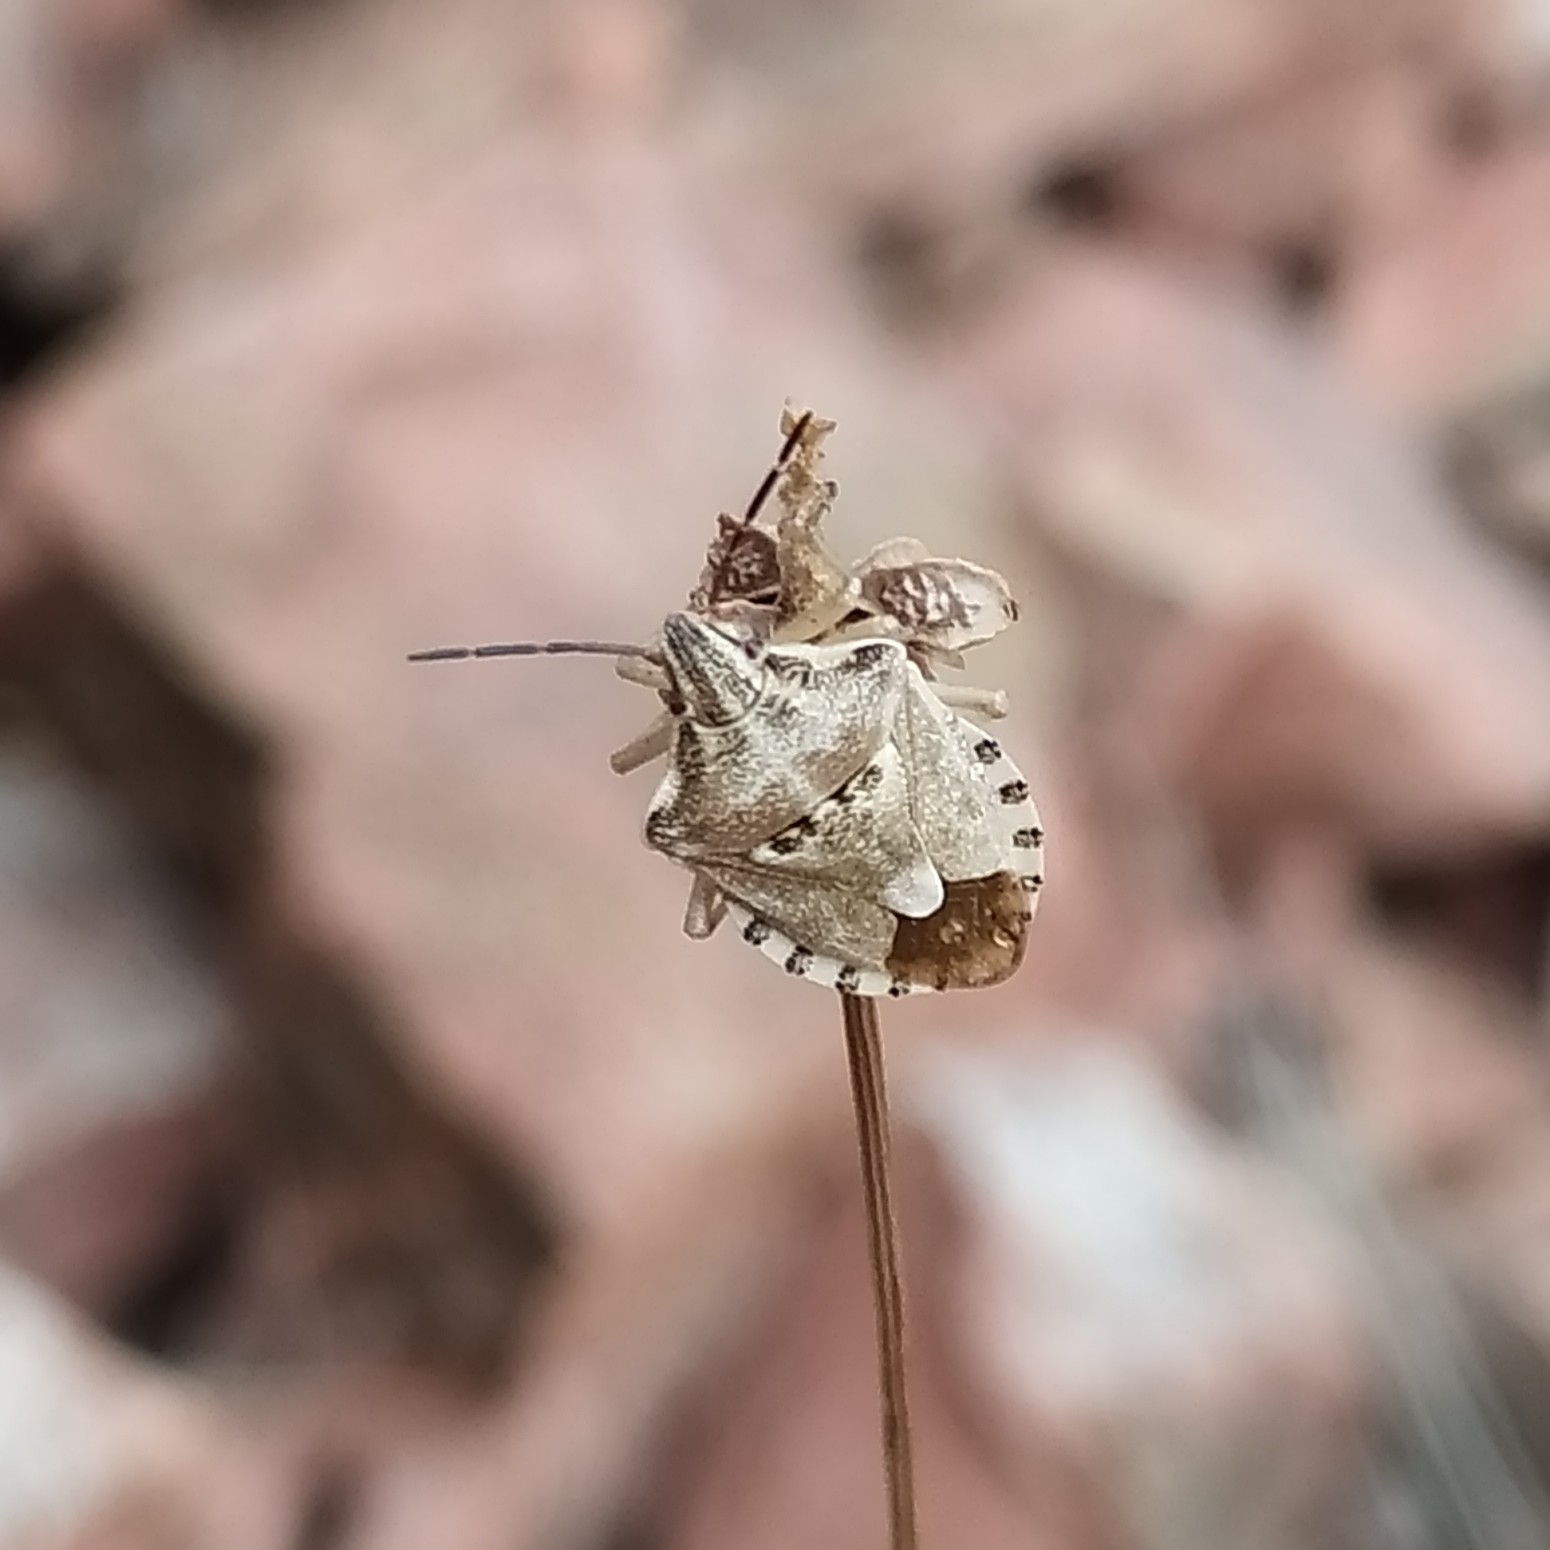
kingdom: Animalia
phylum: Arthropoda
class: Insecta
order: Hemiptera
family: Miridae
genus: Orthops
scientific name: Orthops kalmii
